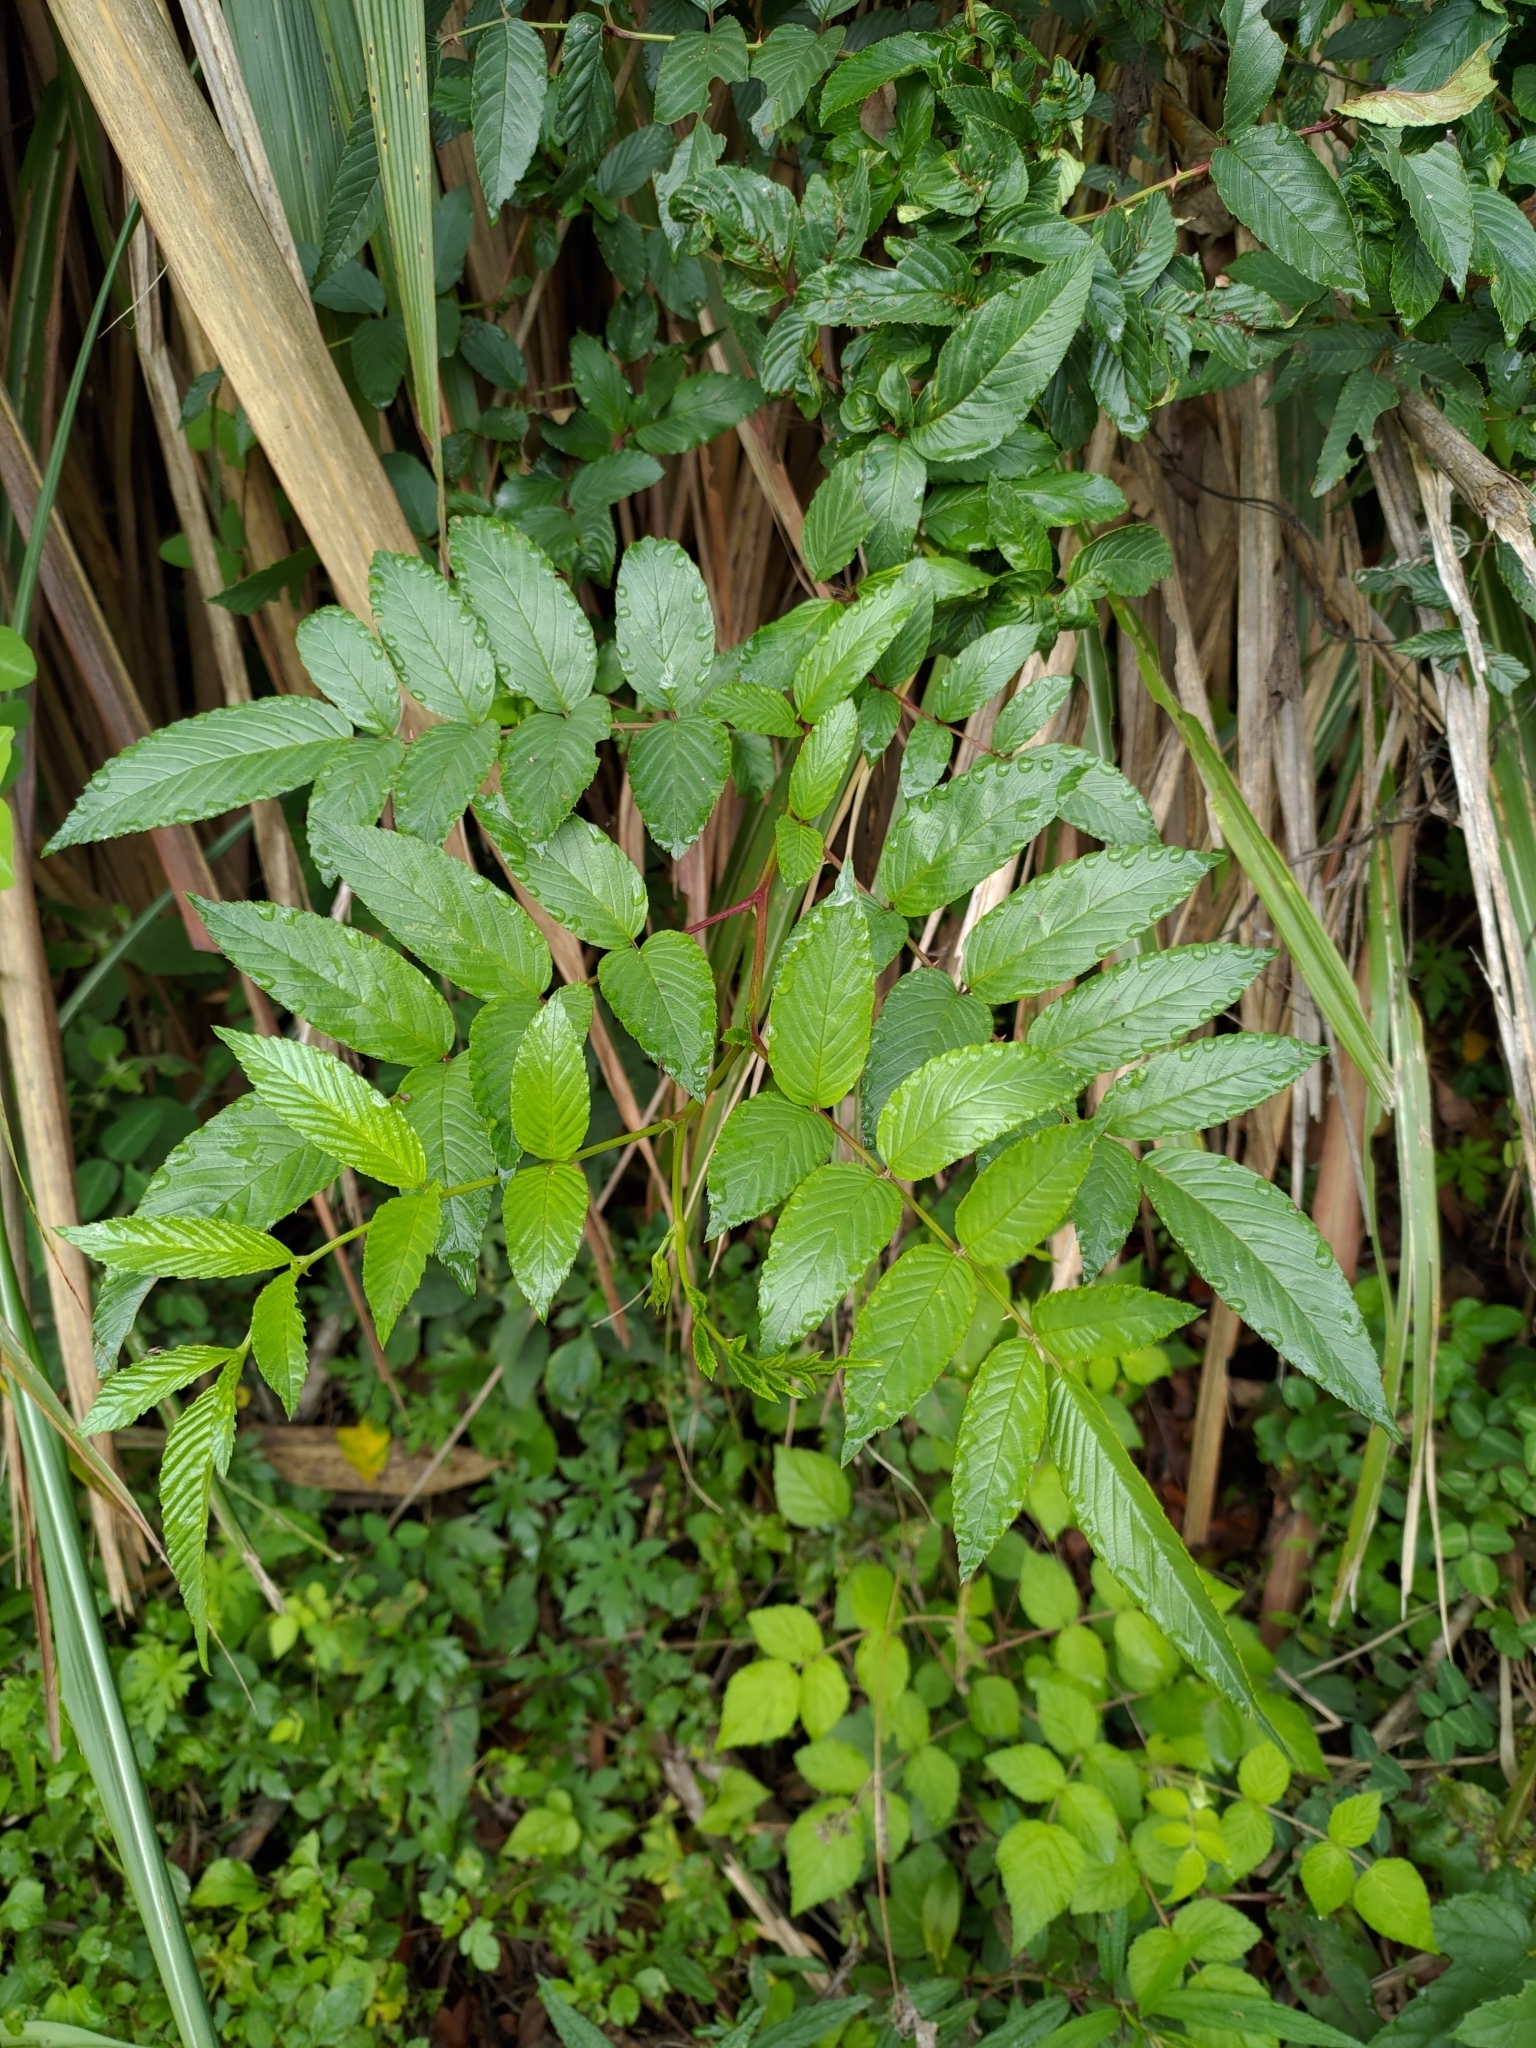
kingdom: Plantae
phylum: Tracheophyta
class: Magnoliopsida
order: Rosales
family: Rosaceae
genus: Rubus
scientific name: Rubus fraxinifolius
